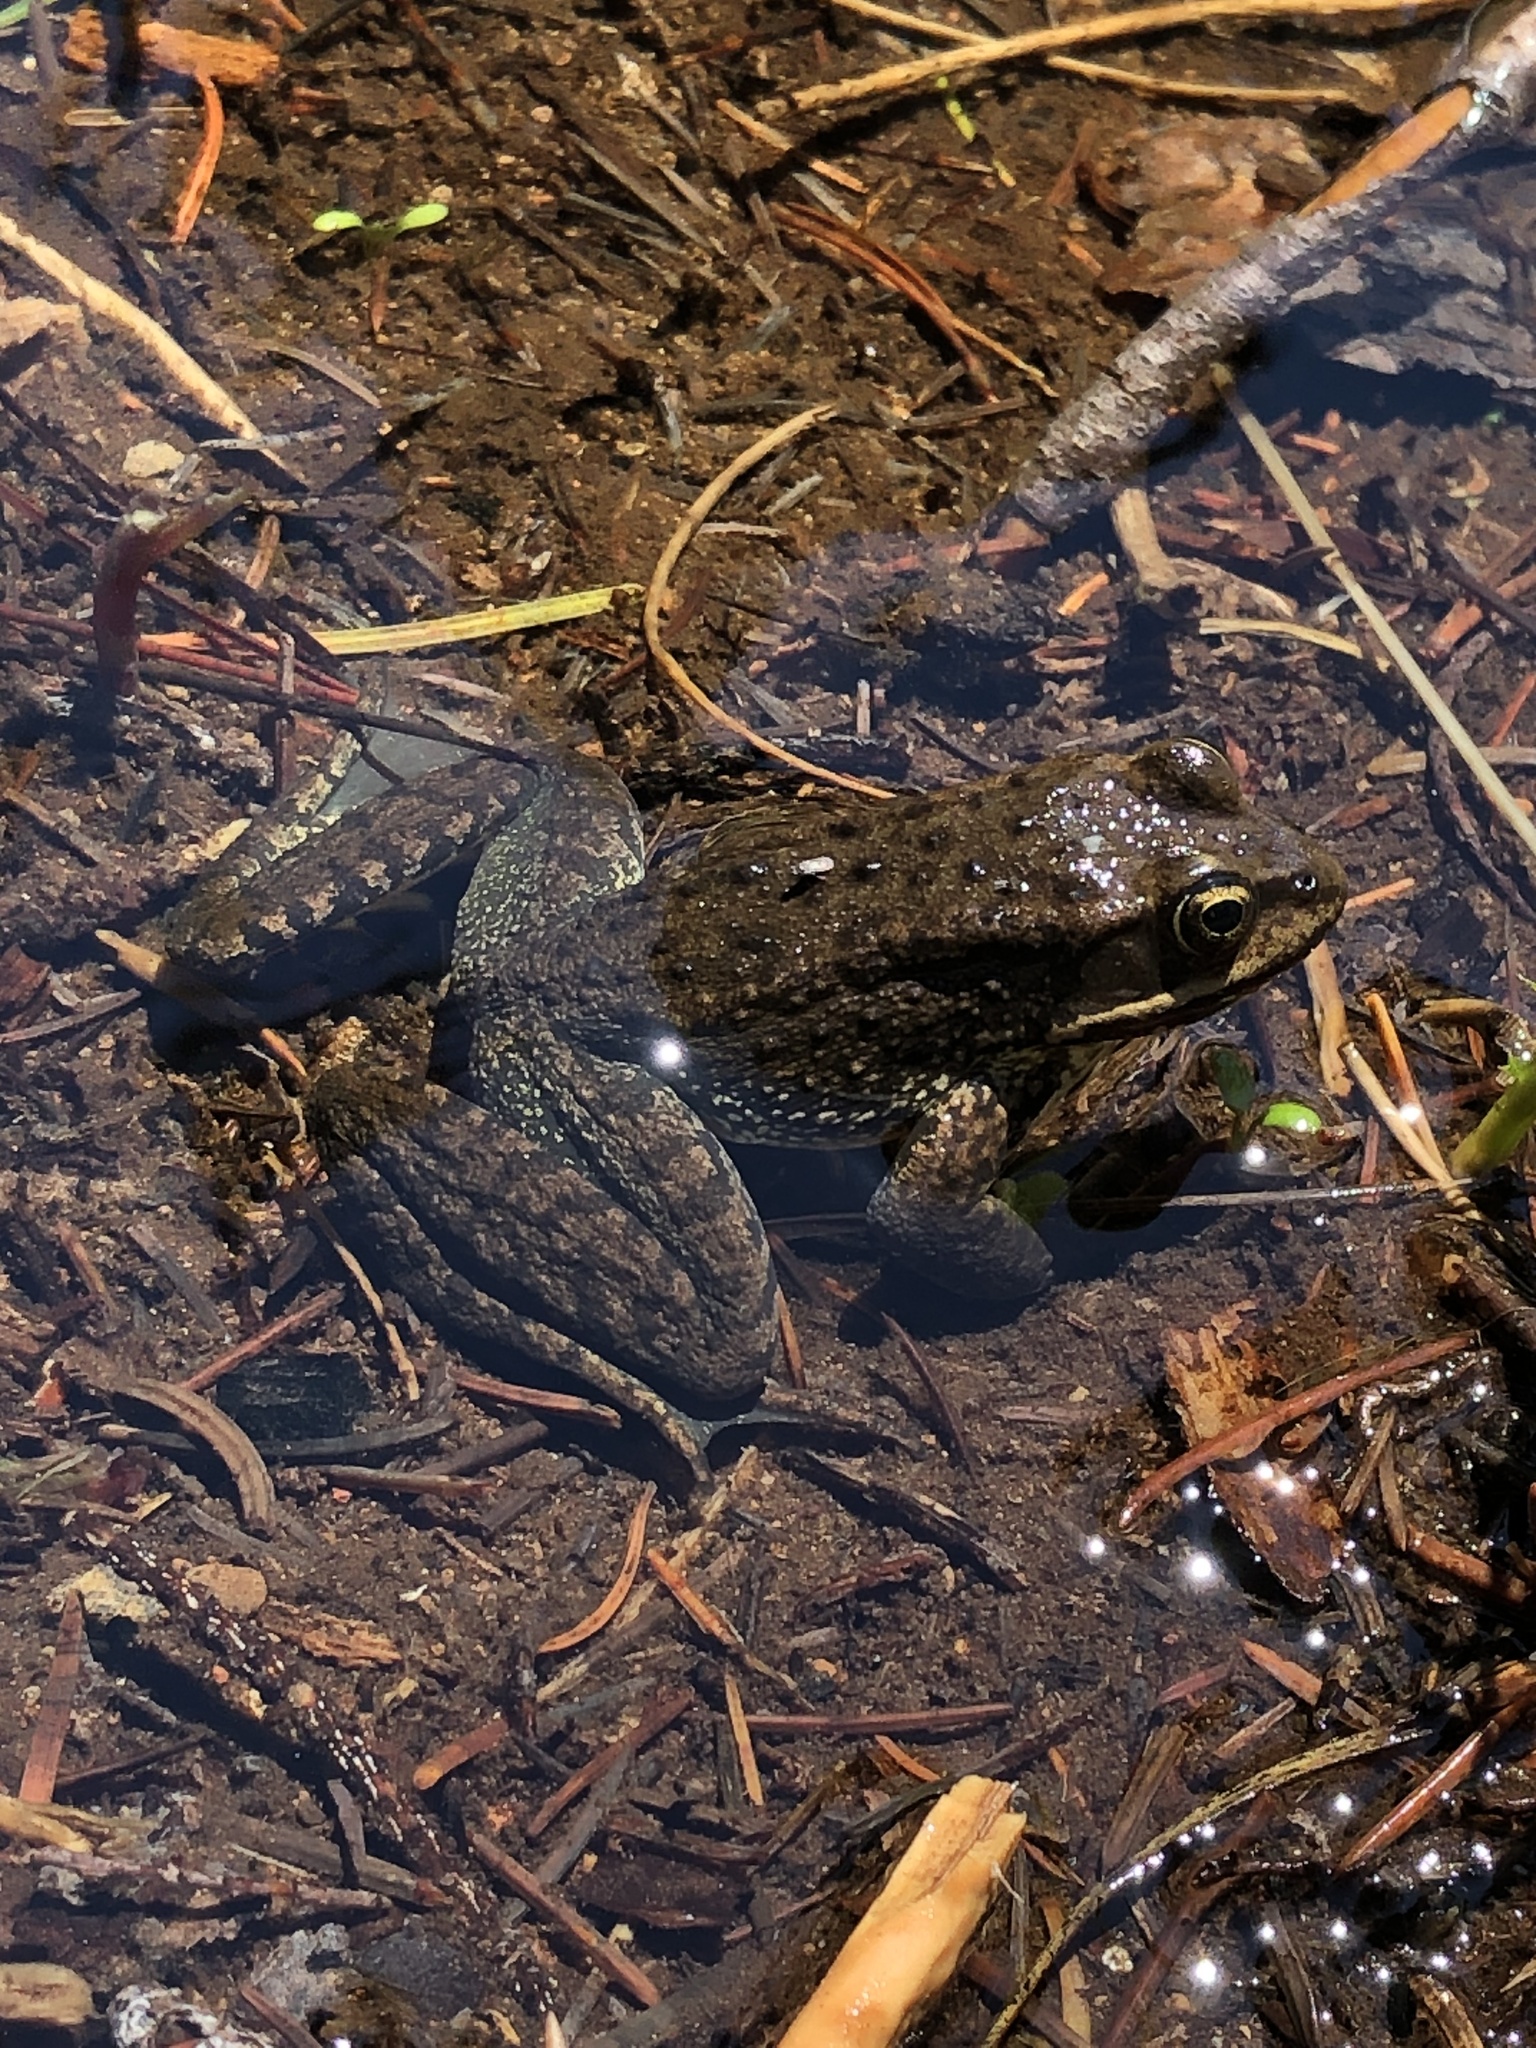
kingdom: Animalia
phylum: Chordata
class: Amphibia
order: Anura
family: Ranidae
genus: Rana
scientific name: Rana cascadae
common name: Cascades frog
